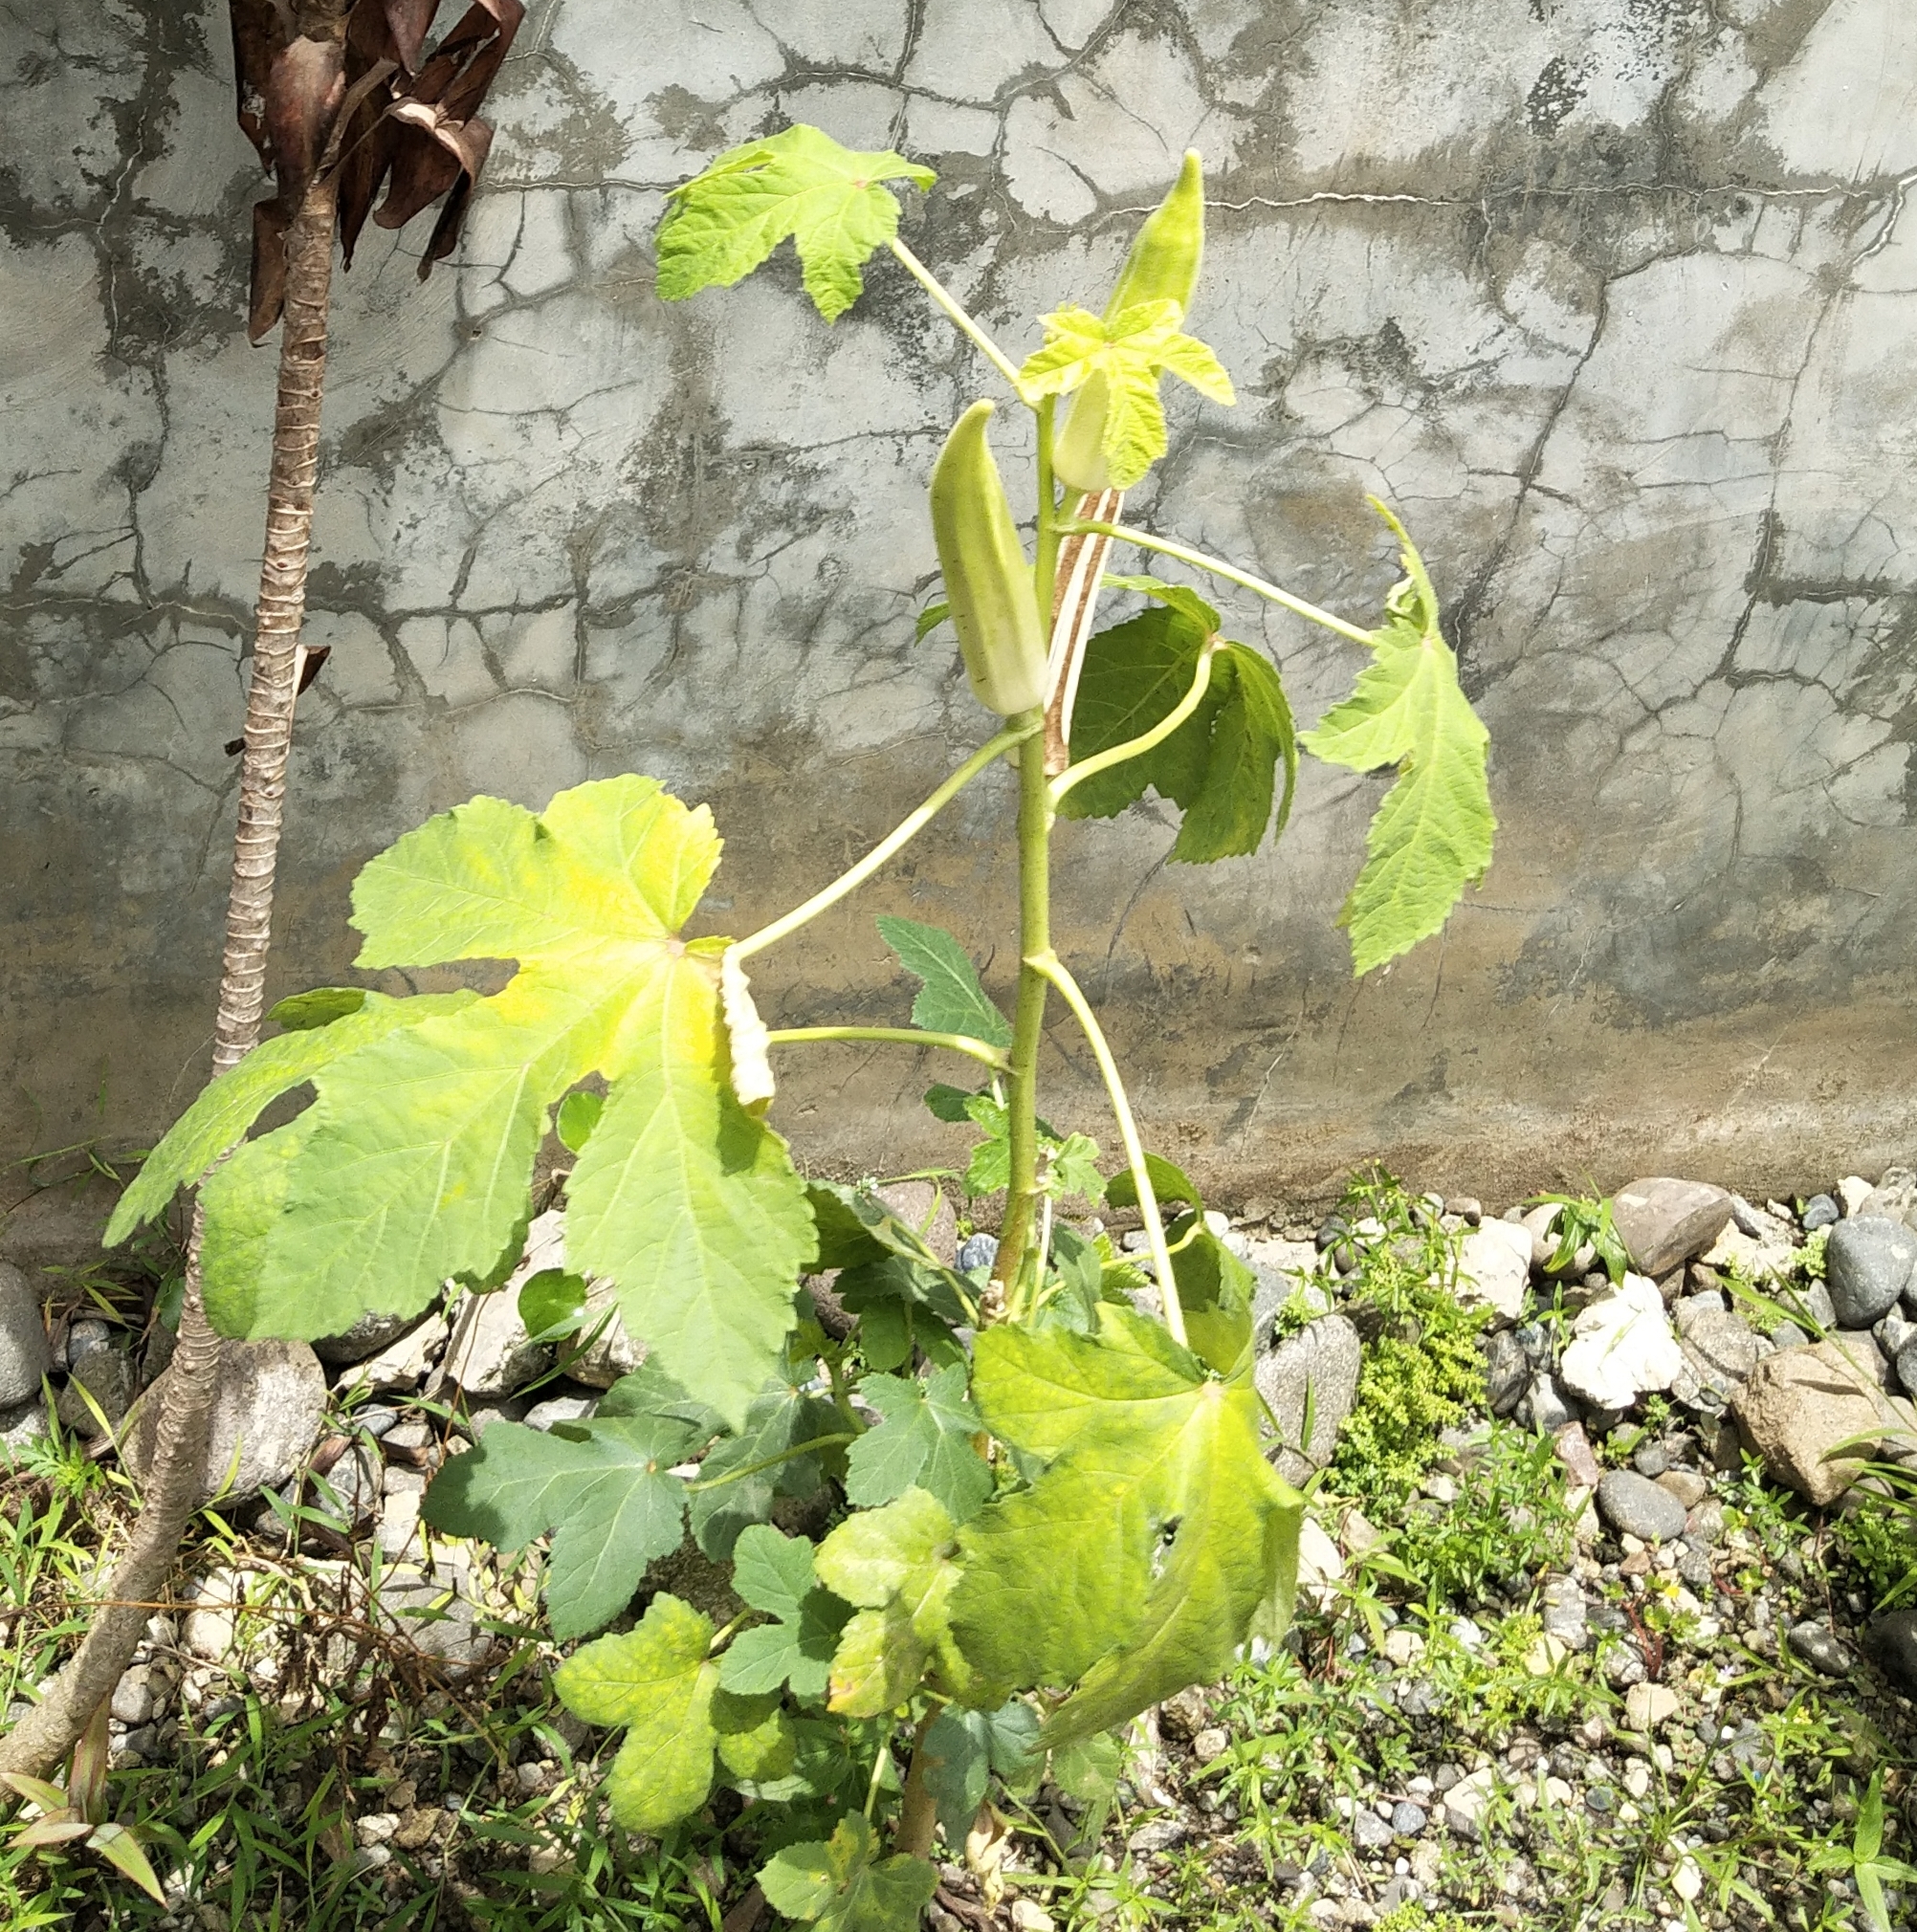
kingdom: Plantae
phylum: Tracheophyta
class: Magnoliopsida
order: Malvales
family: Malvaceae
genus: Abelmoschus
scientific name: Abelmoschus esculentus
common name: Okra
